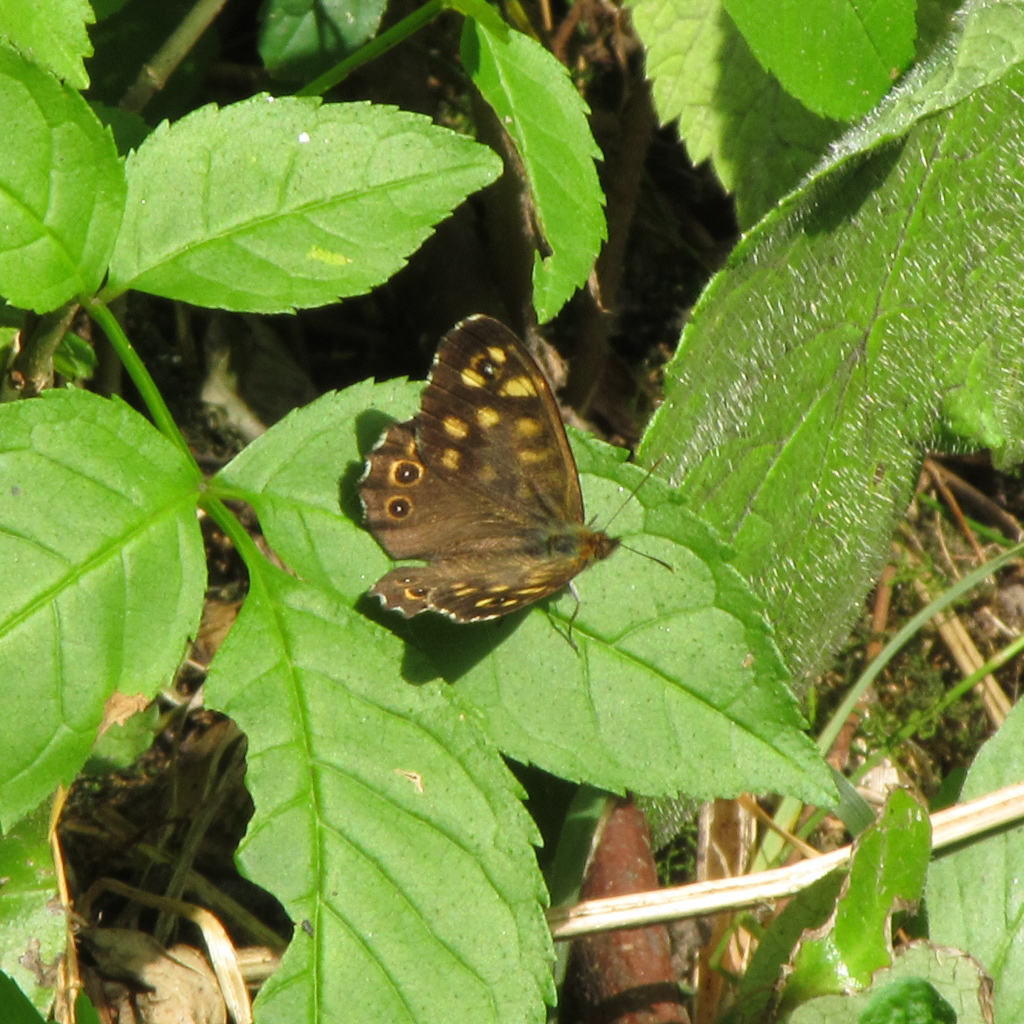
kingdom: Animalia
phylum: Arthropoda
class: Insecta
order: Lepidoptera
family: Nymphalidae
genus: Pararge
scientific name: Pararge aegeria
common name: Speckled wood
